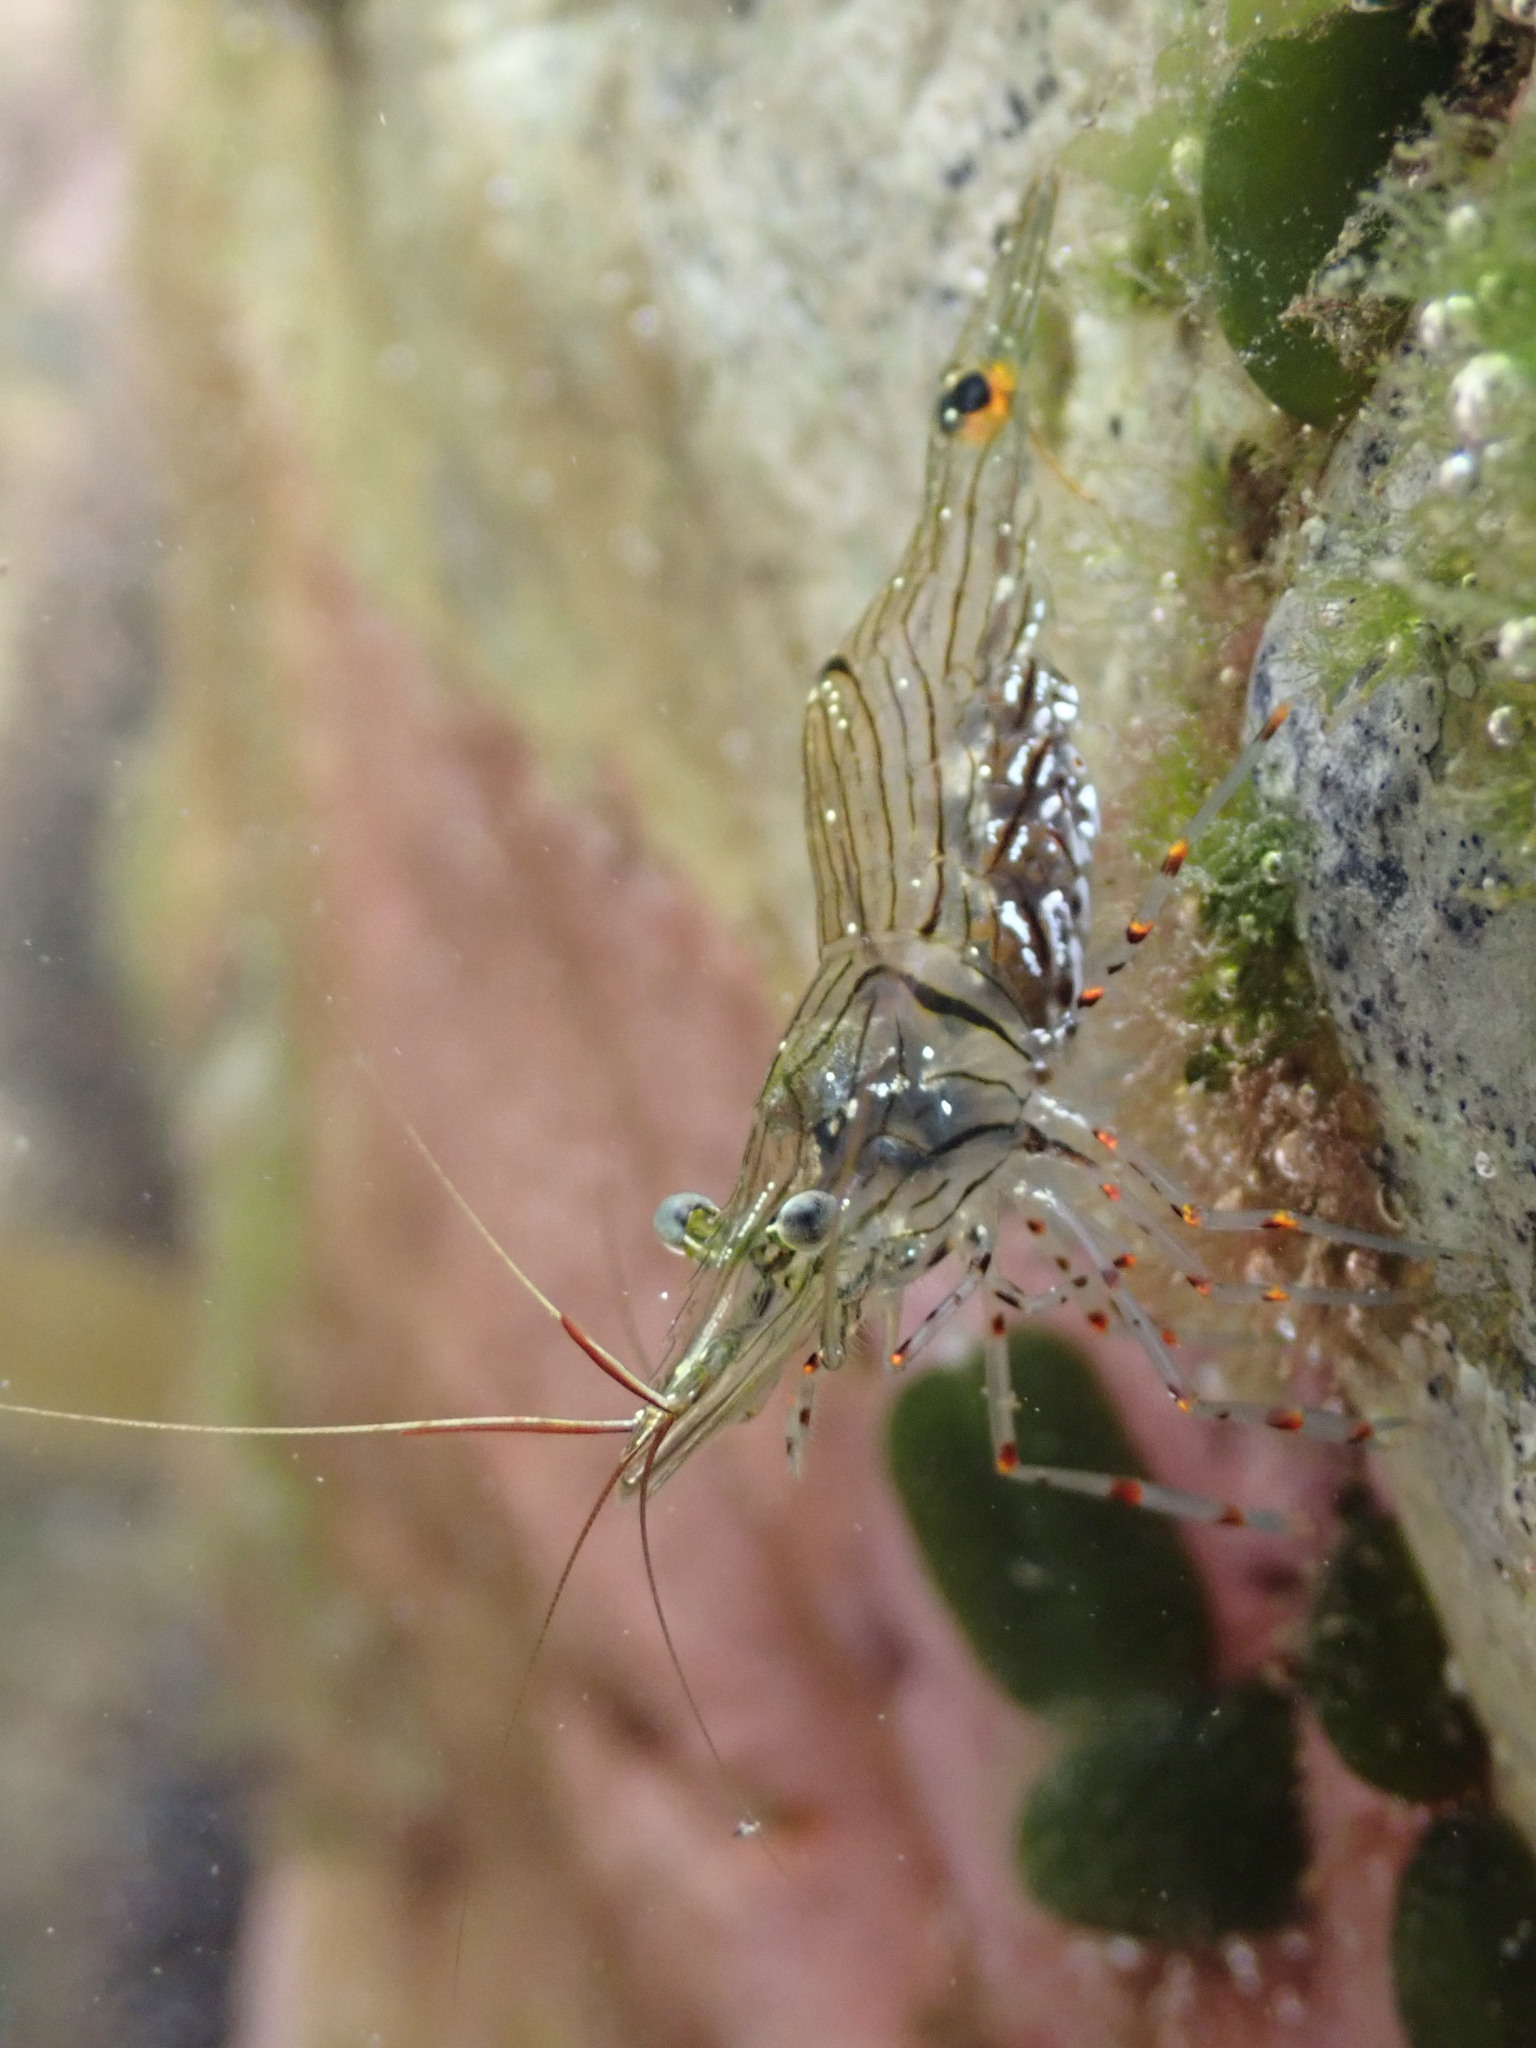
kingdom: Animalia
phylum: Arthropoda
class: Malacostraca
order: Decapoda
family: Palaemonidae
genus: Palaemon
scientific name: Palaemon affinis
